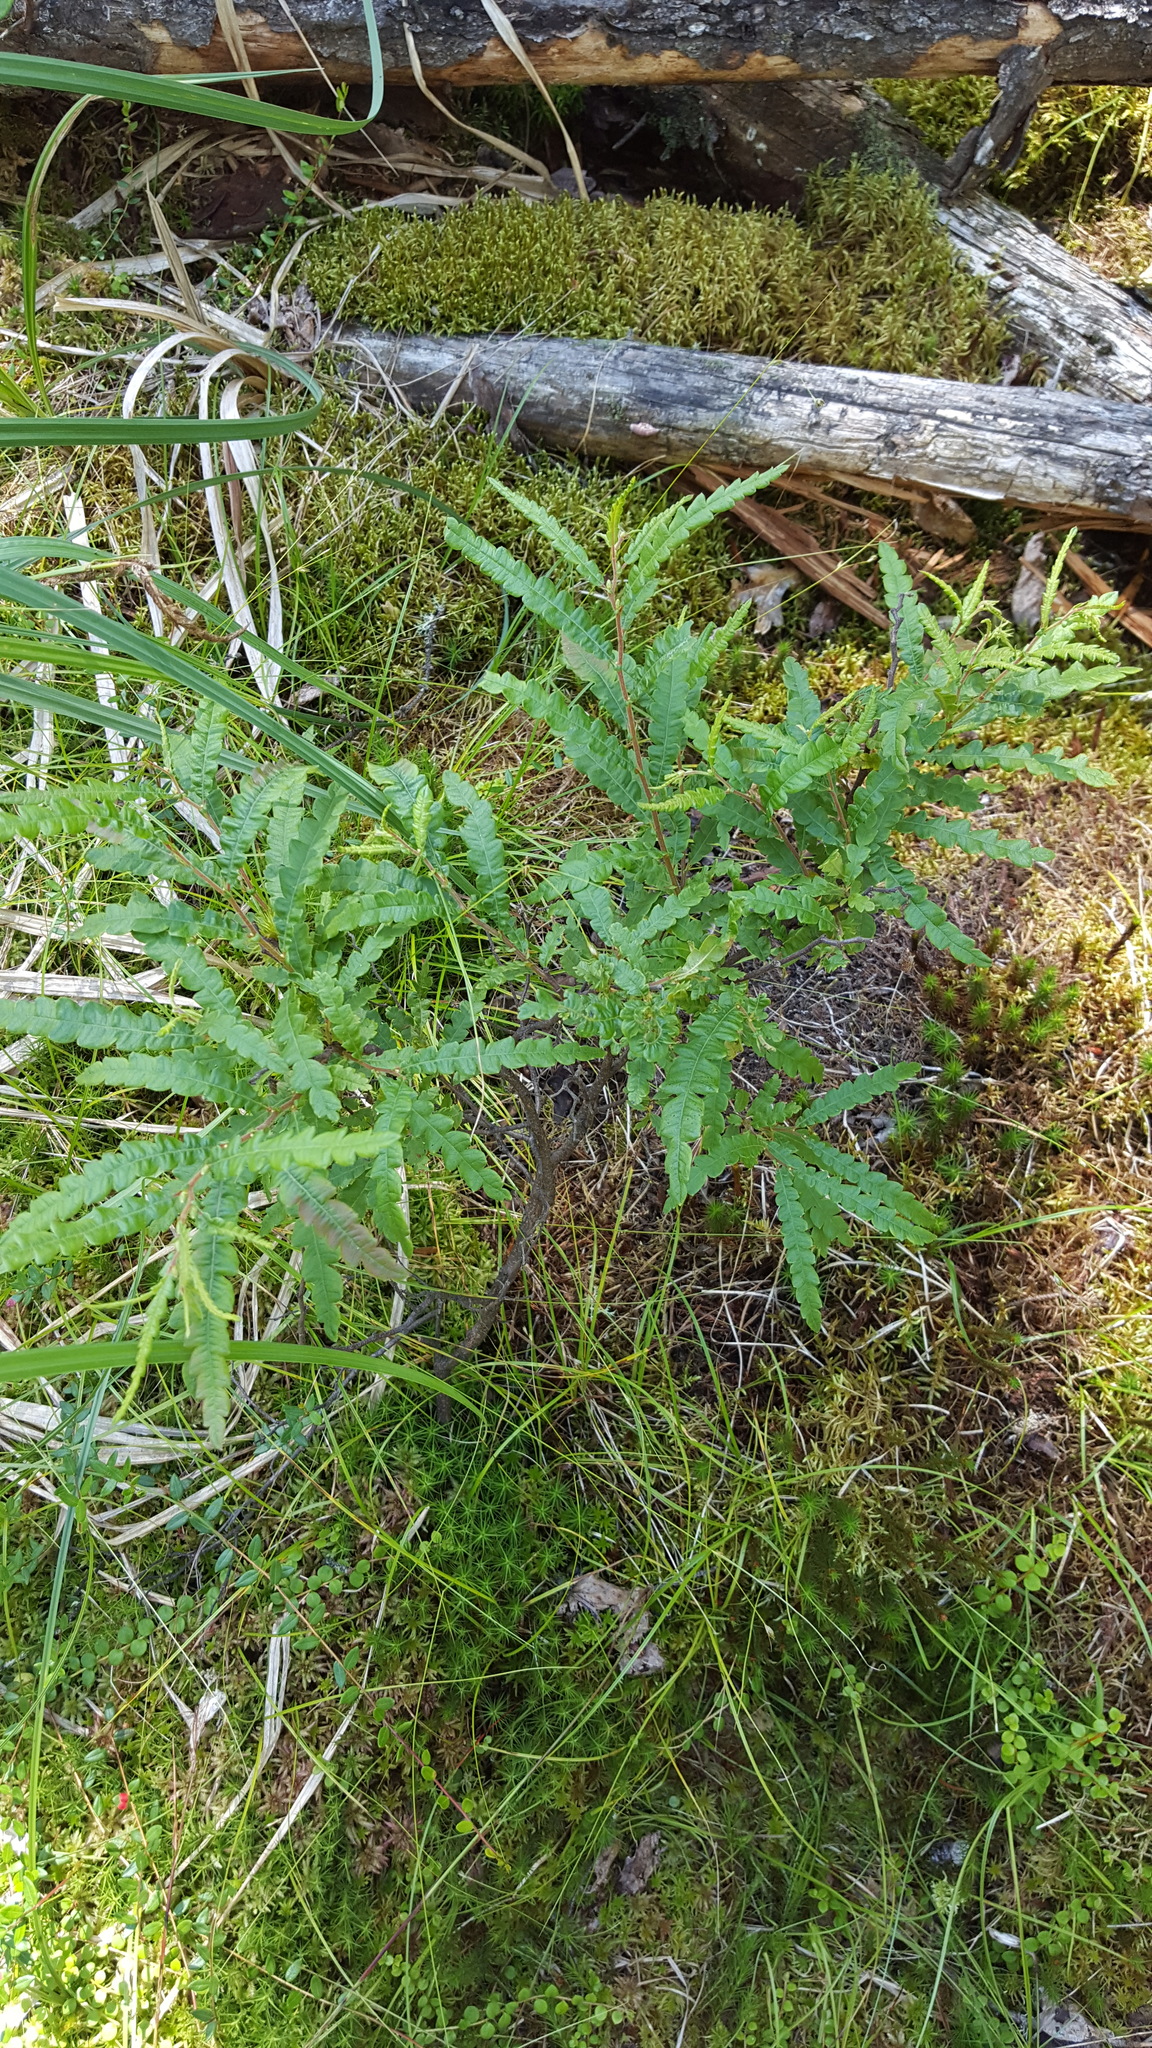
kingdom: Plantae
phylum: Tracheophyta
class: Magnoliopsida
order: Fagales
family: Myricaceae
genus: Comptonia
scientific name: Comptonia peregrina
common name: Sweet-fern
